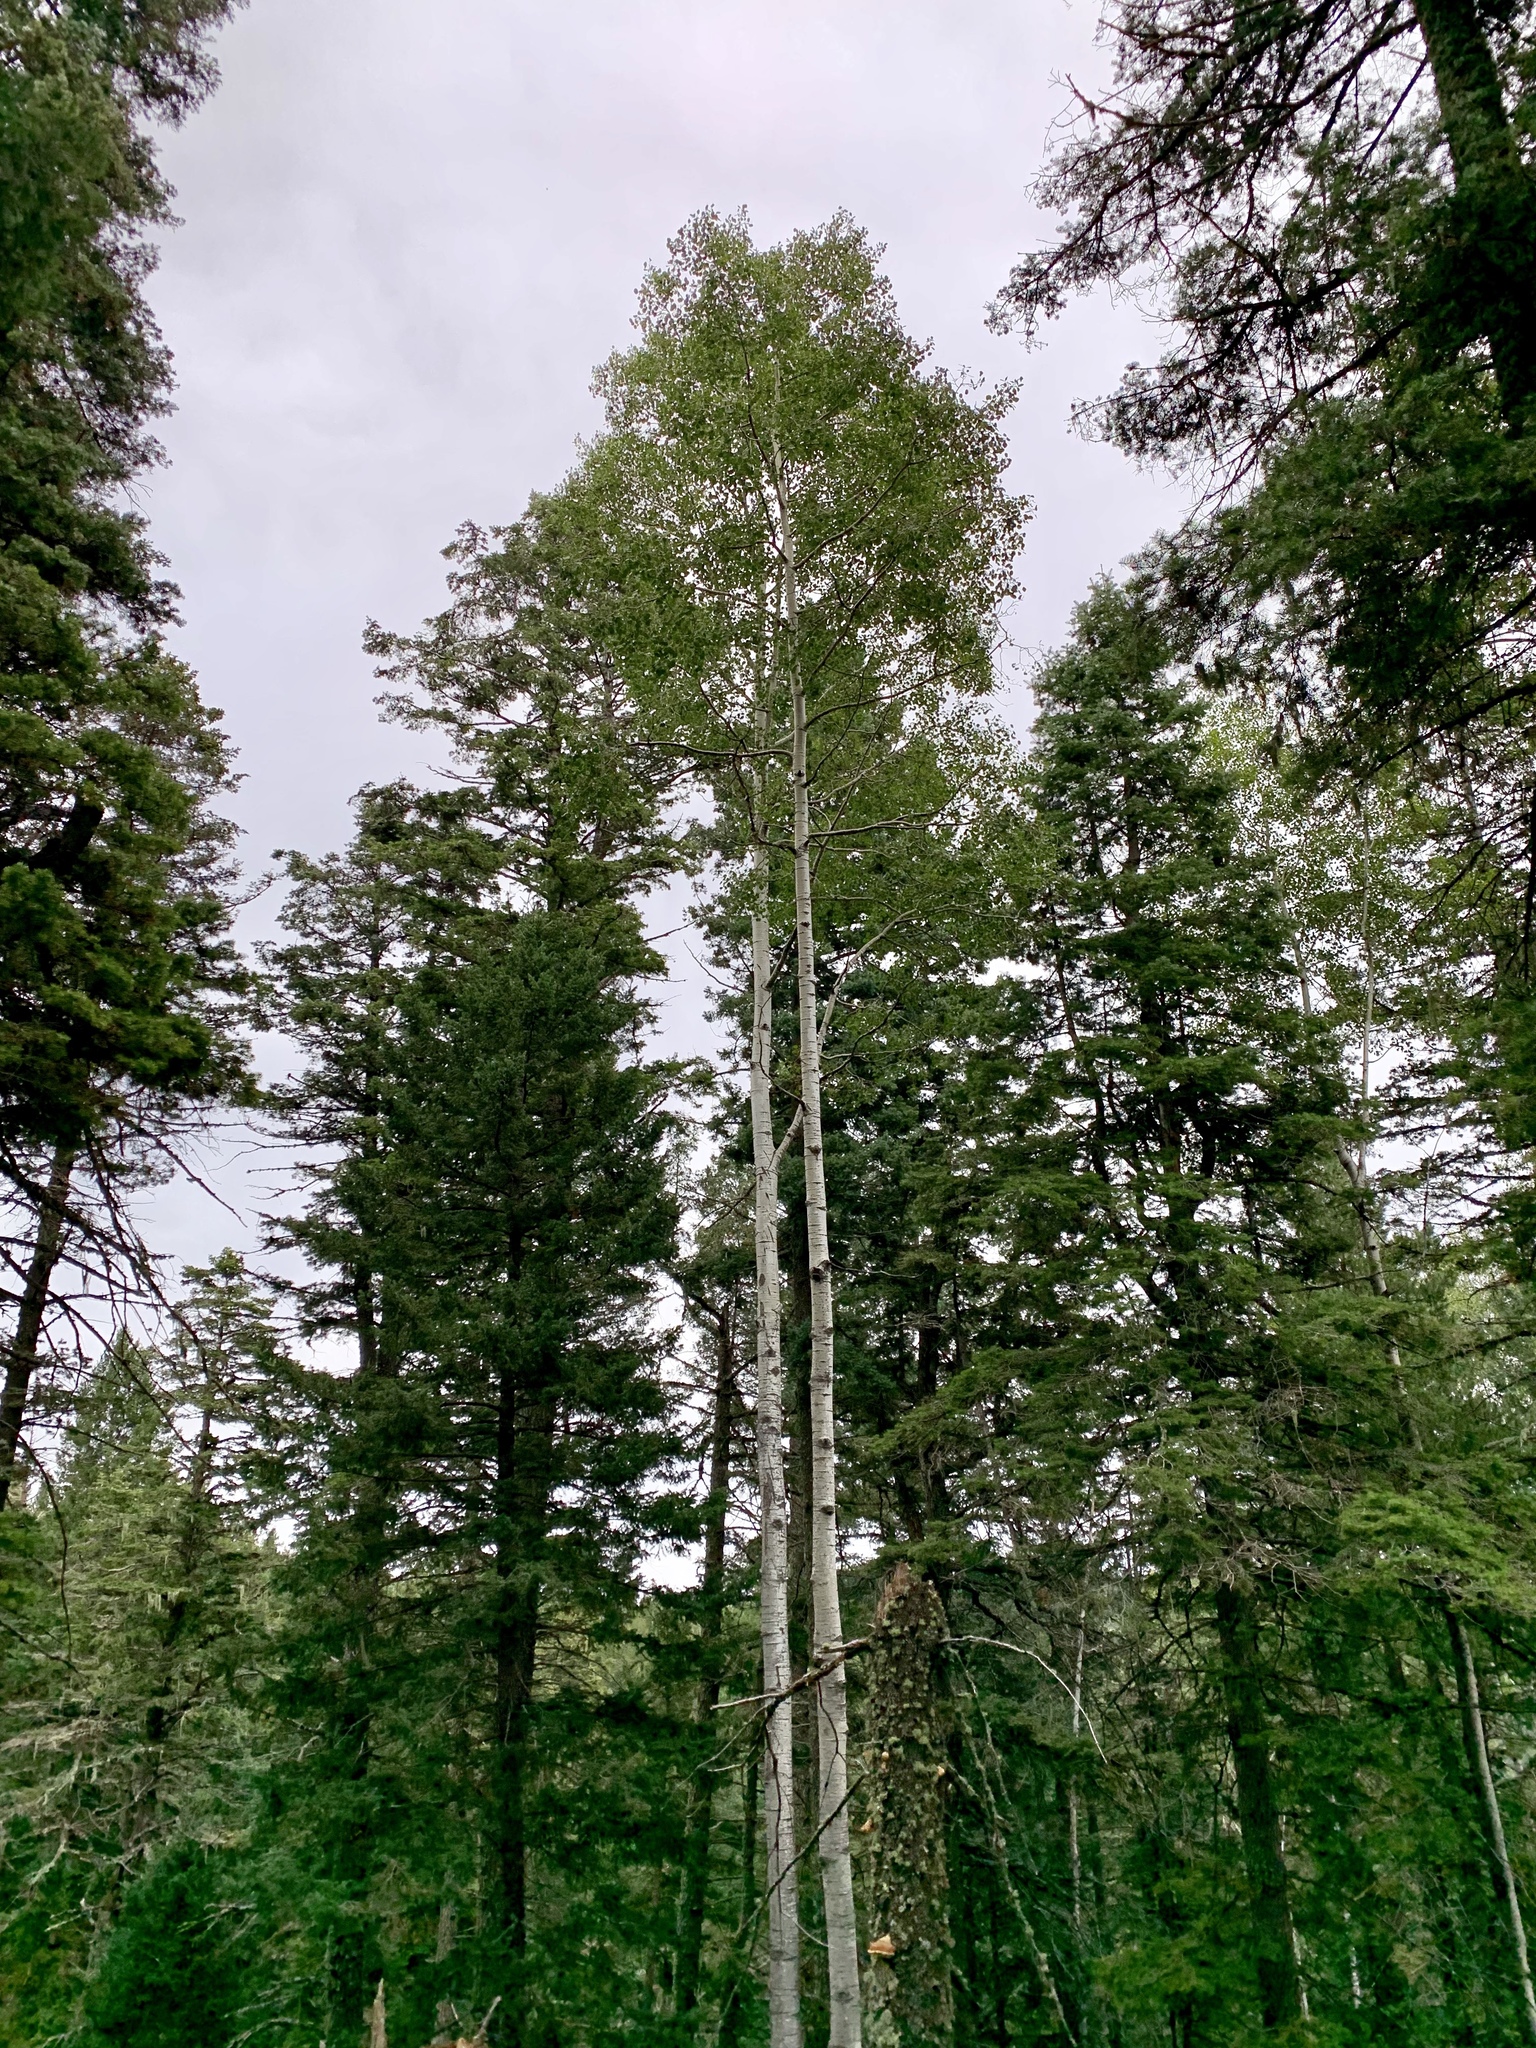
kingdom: Plantae
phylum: Tracheophyta
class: Magnoliopsida
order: Malpighiales
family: Salicaceae
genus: Populus
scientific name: Populus tremuloides
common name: Quaking aspen
